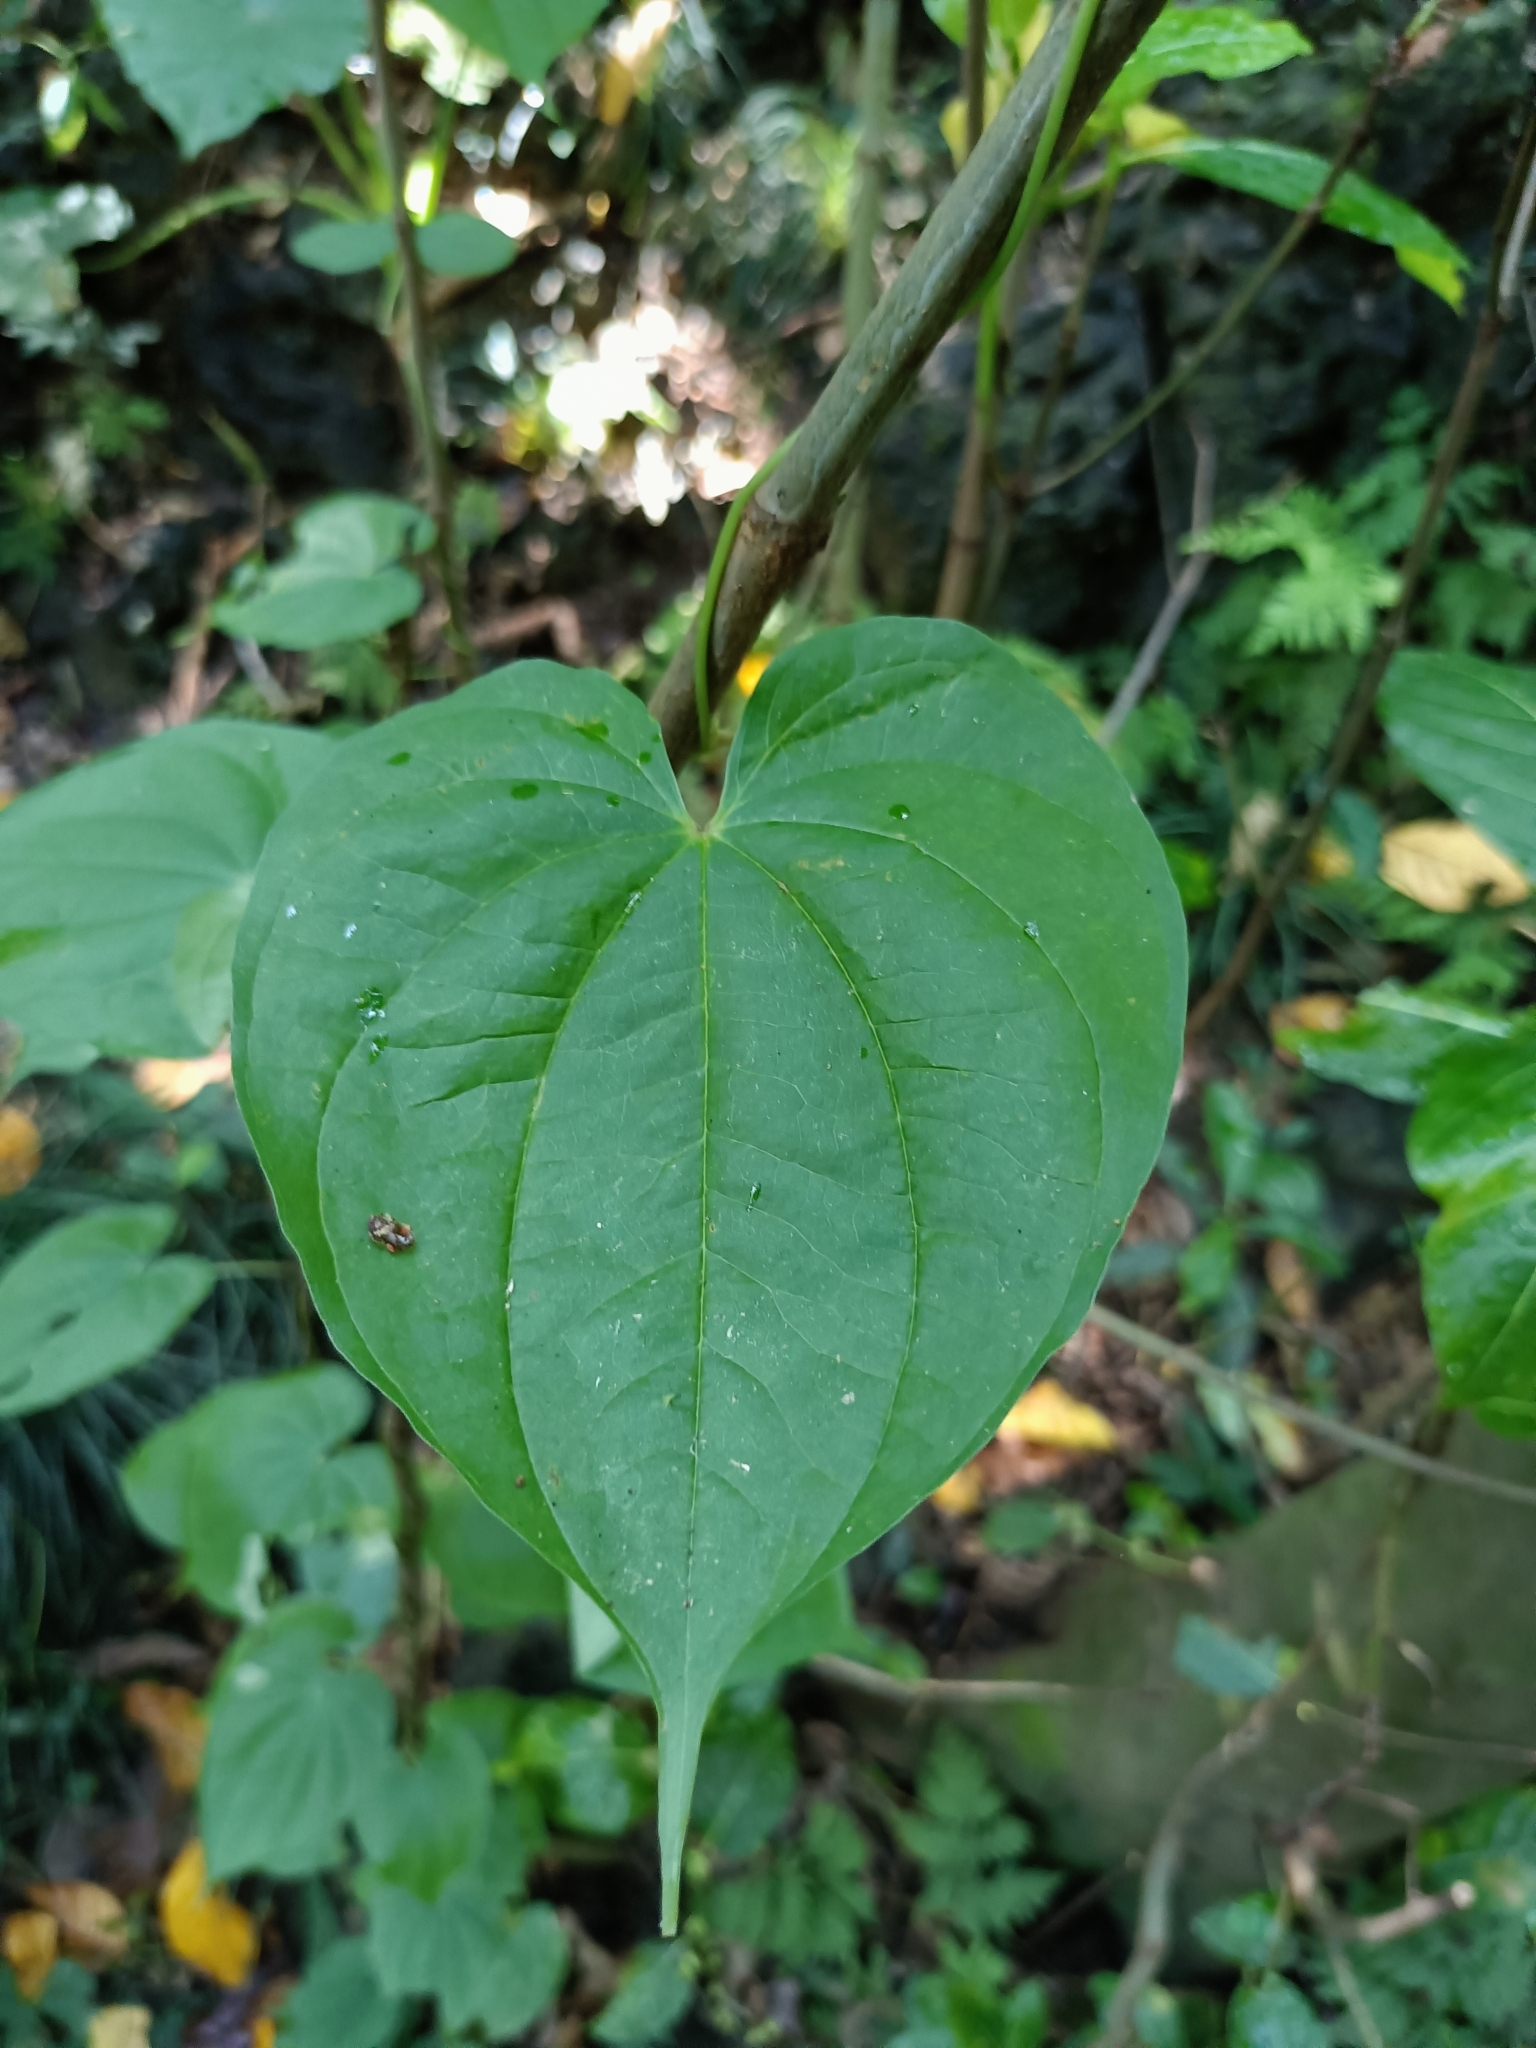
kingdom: Plantae
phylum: Tracheophyta
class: Liliopsida
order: Dioscoreales
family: Dioscoreaceae
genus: Dioscorea
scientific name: Dioscorea bulbifera
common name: Air yam
